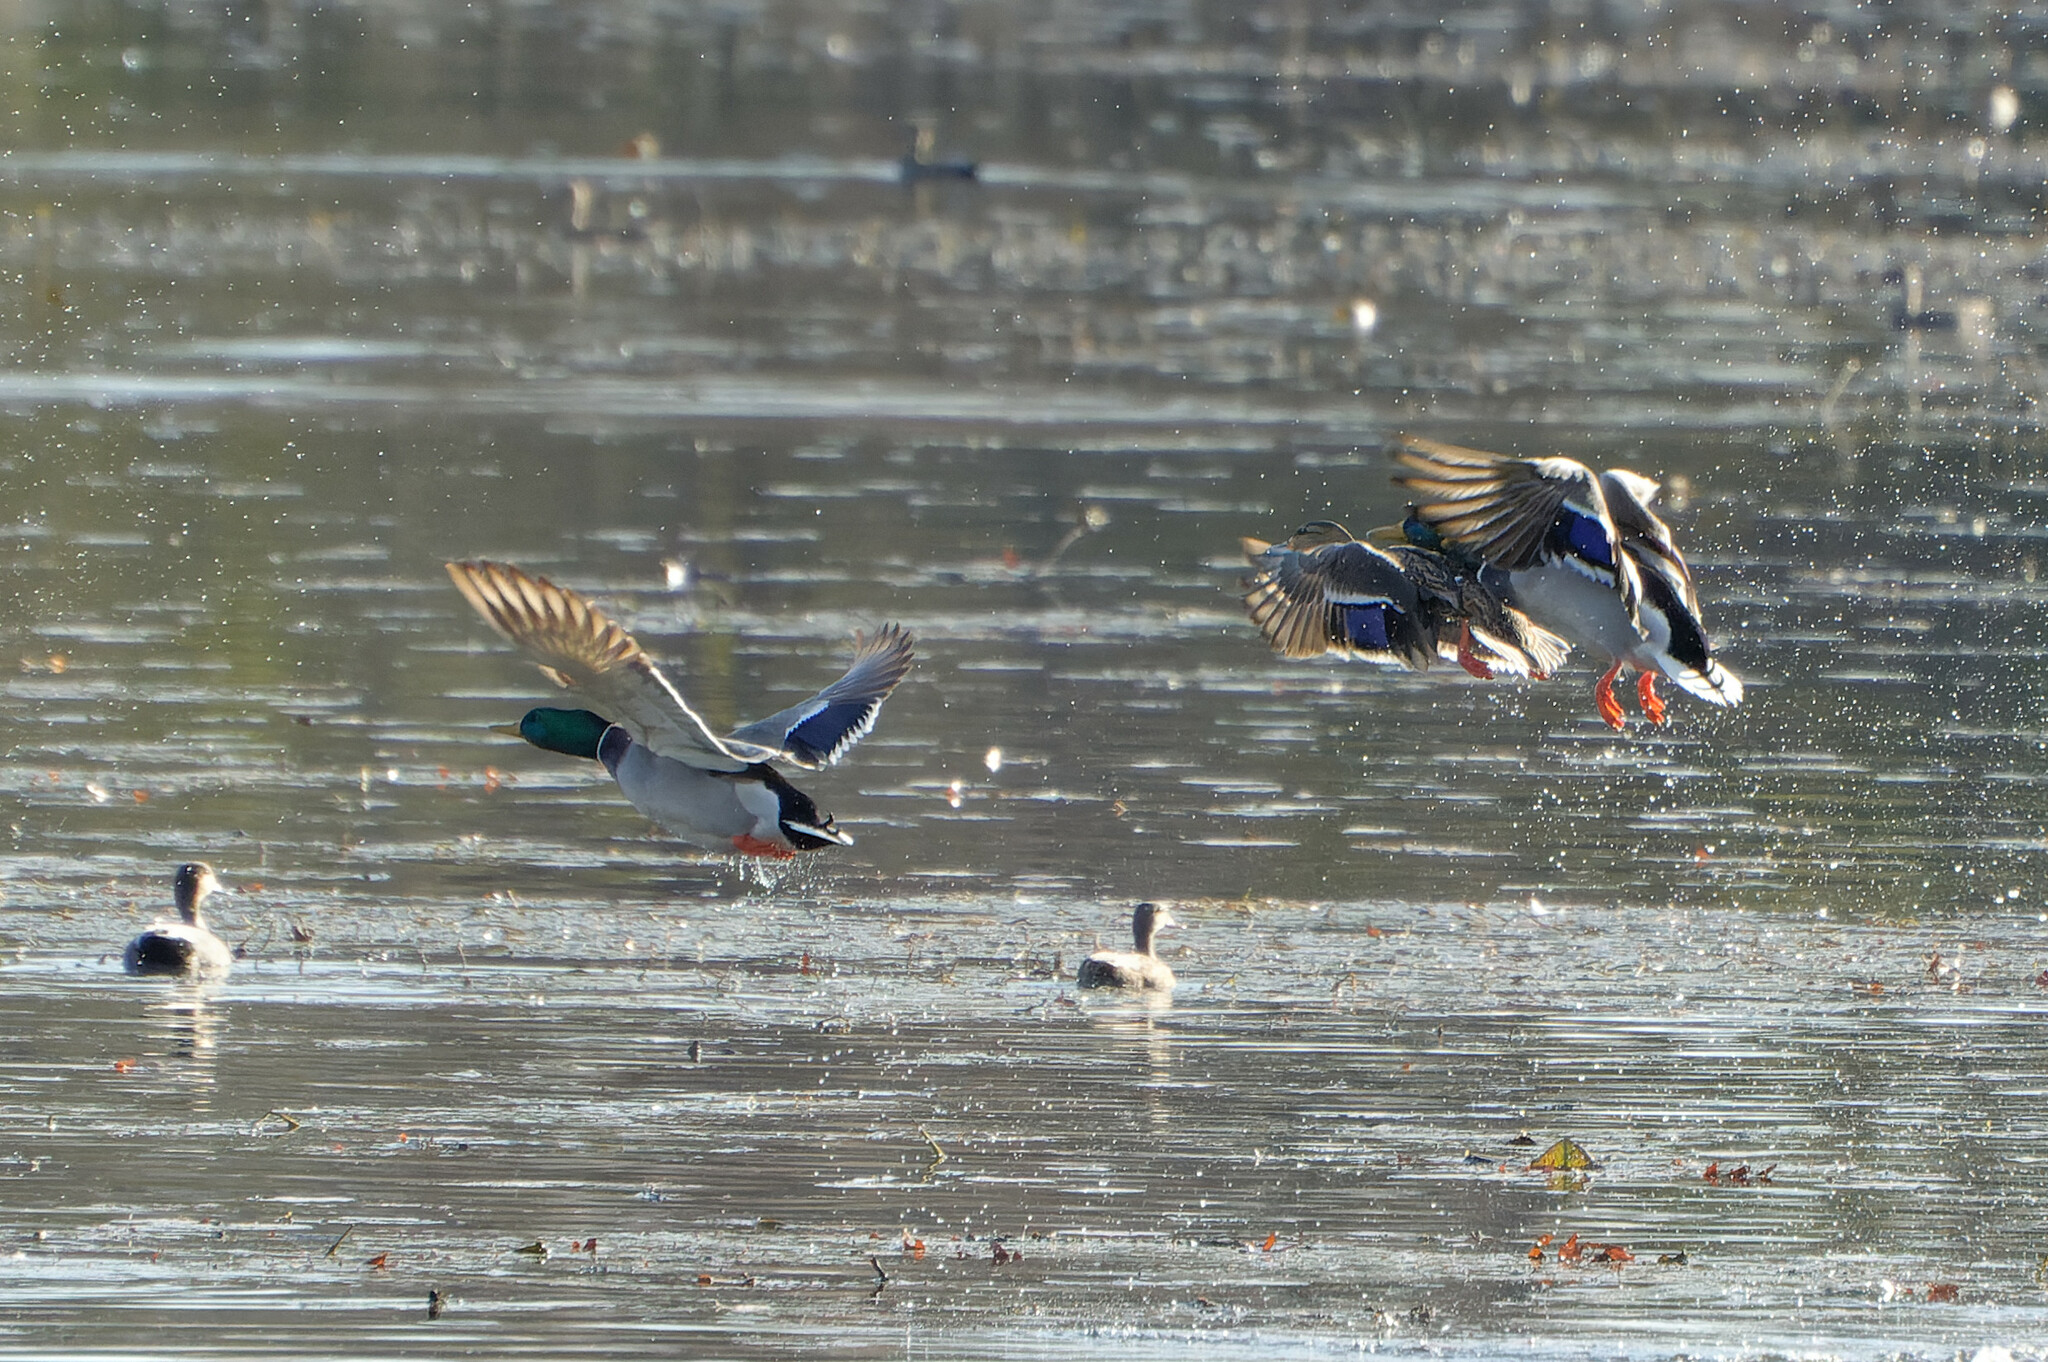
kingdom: Animalia
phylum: Chordata
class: Aves
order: Anseriformes
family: Anatidae
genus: Anas
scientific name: Anas platyrhynchos
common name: Mallard
